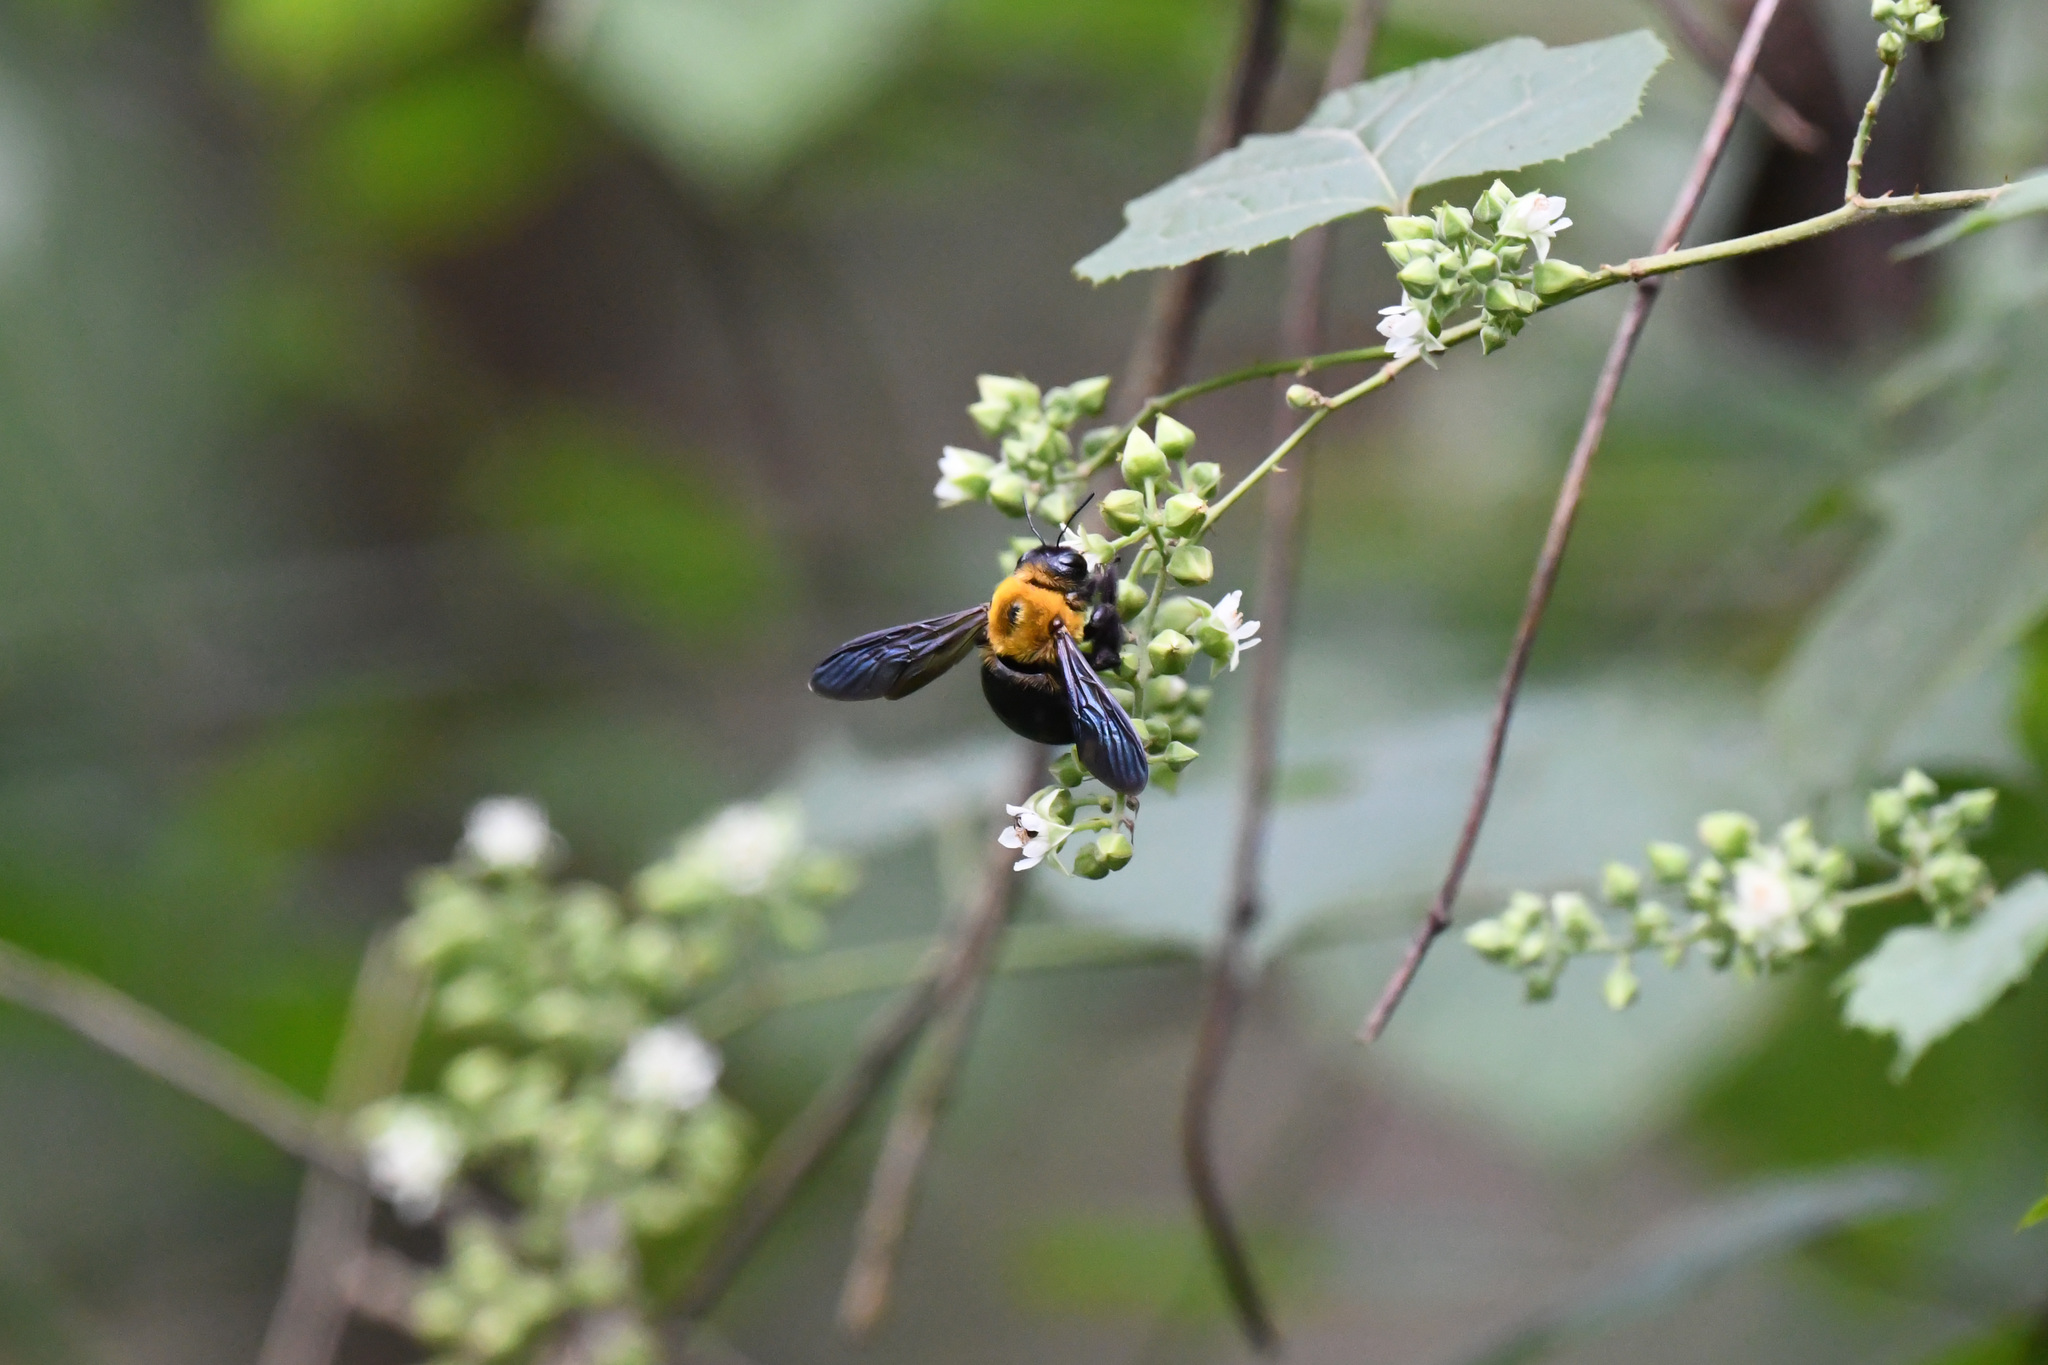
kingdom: Animalia
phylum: Arthropoda
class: Insecta
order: Hymenoptera
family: Apidae
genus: Xylocopa
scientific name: Xylocopa appendiculata
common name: Japanese carpenter bee
